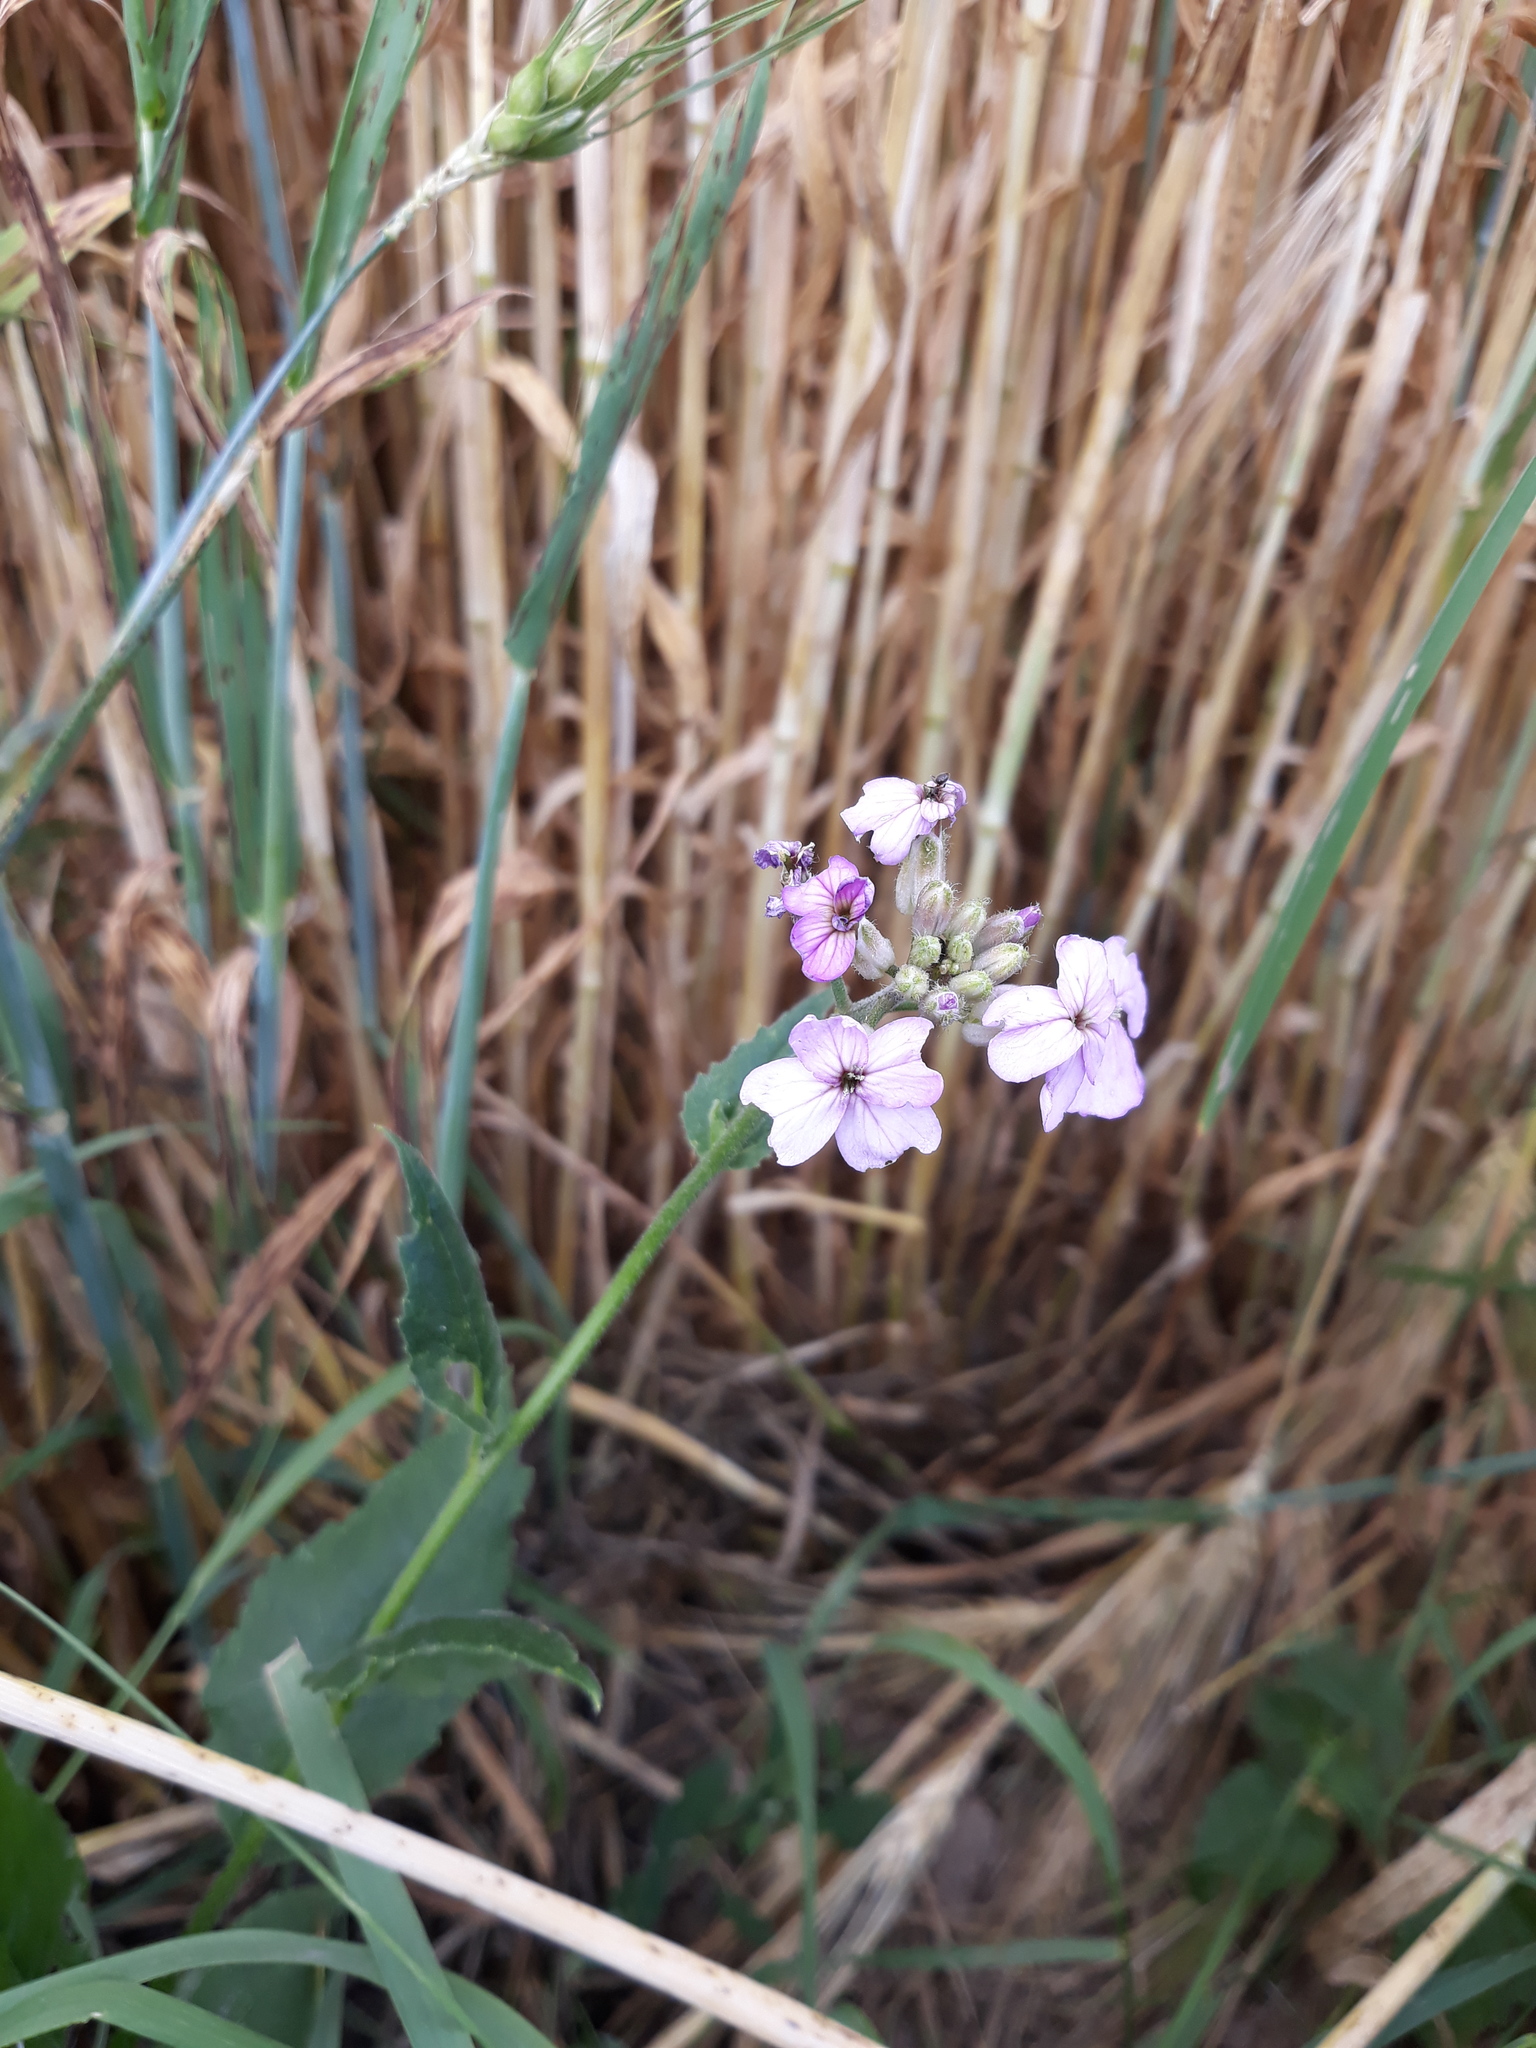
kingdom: Plantae
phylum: Tracheophyta
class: Magnoliopsida
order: Brassicales
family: Brassicaceae
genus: Hesperis
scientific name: Hesperis matronalis
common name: Dame's-violet
